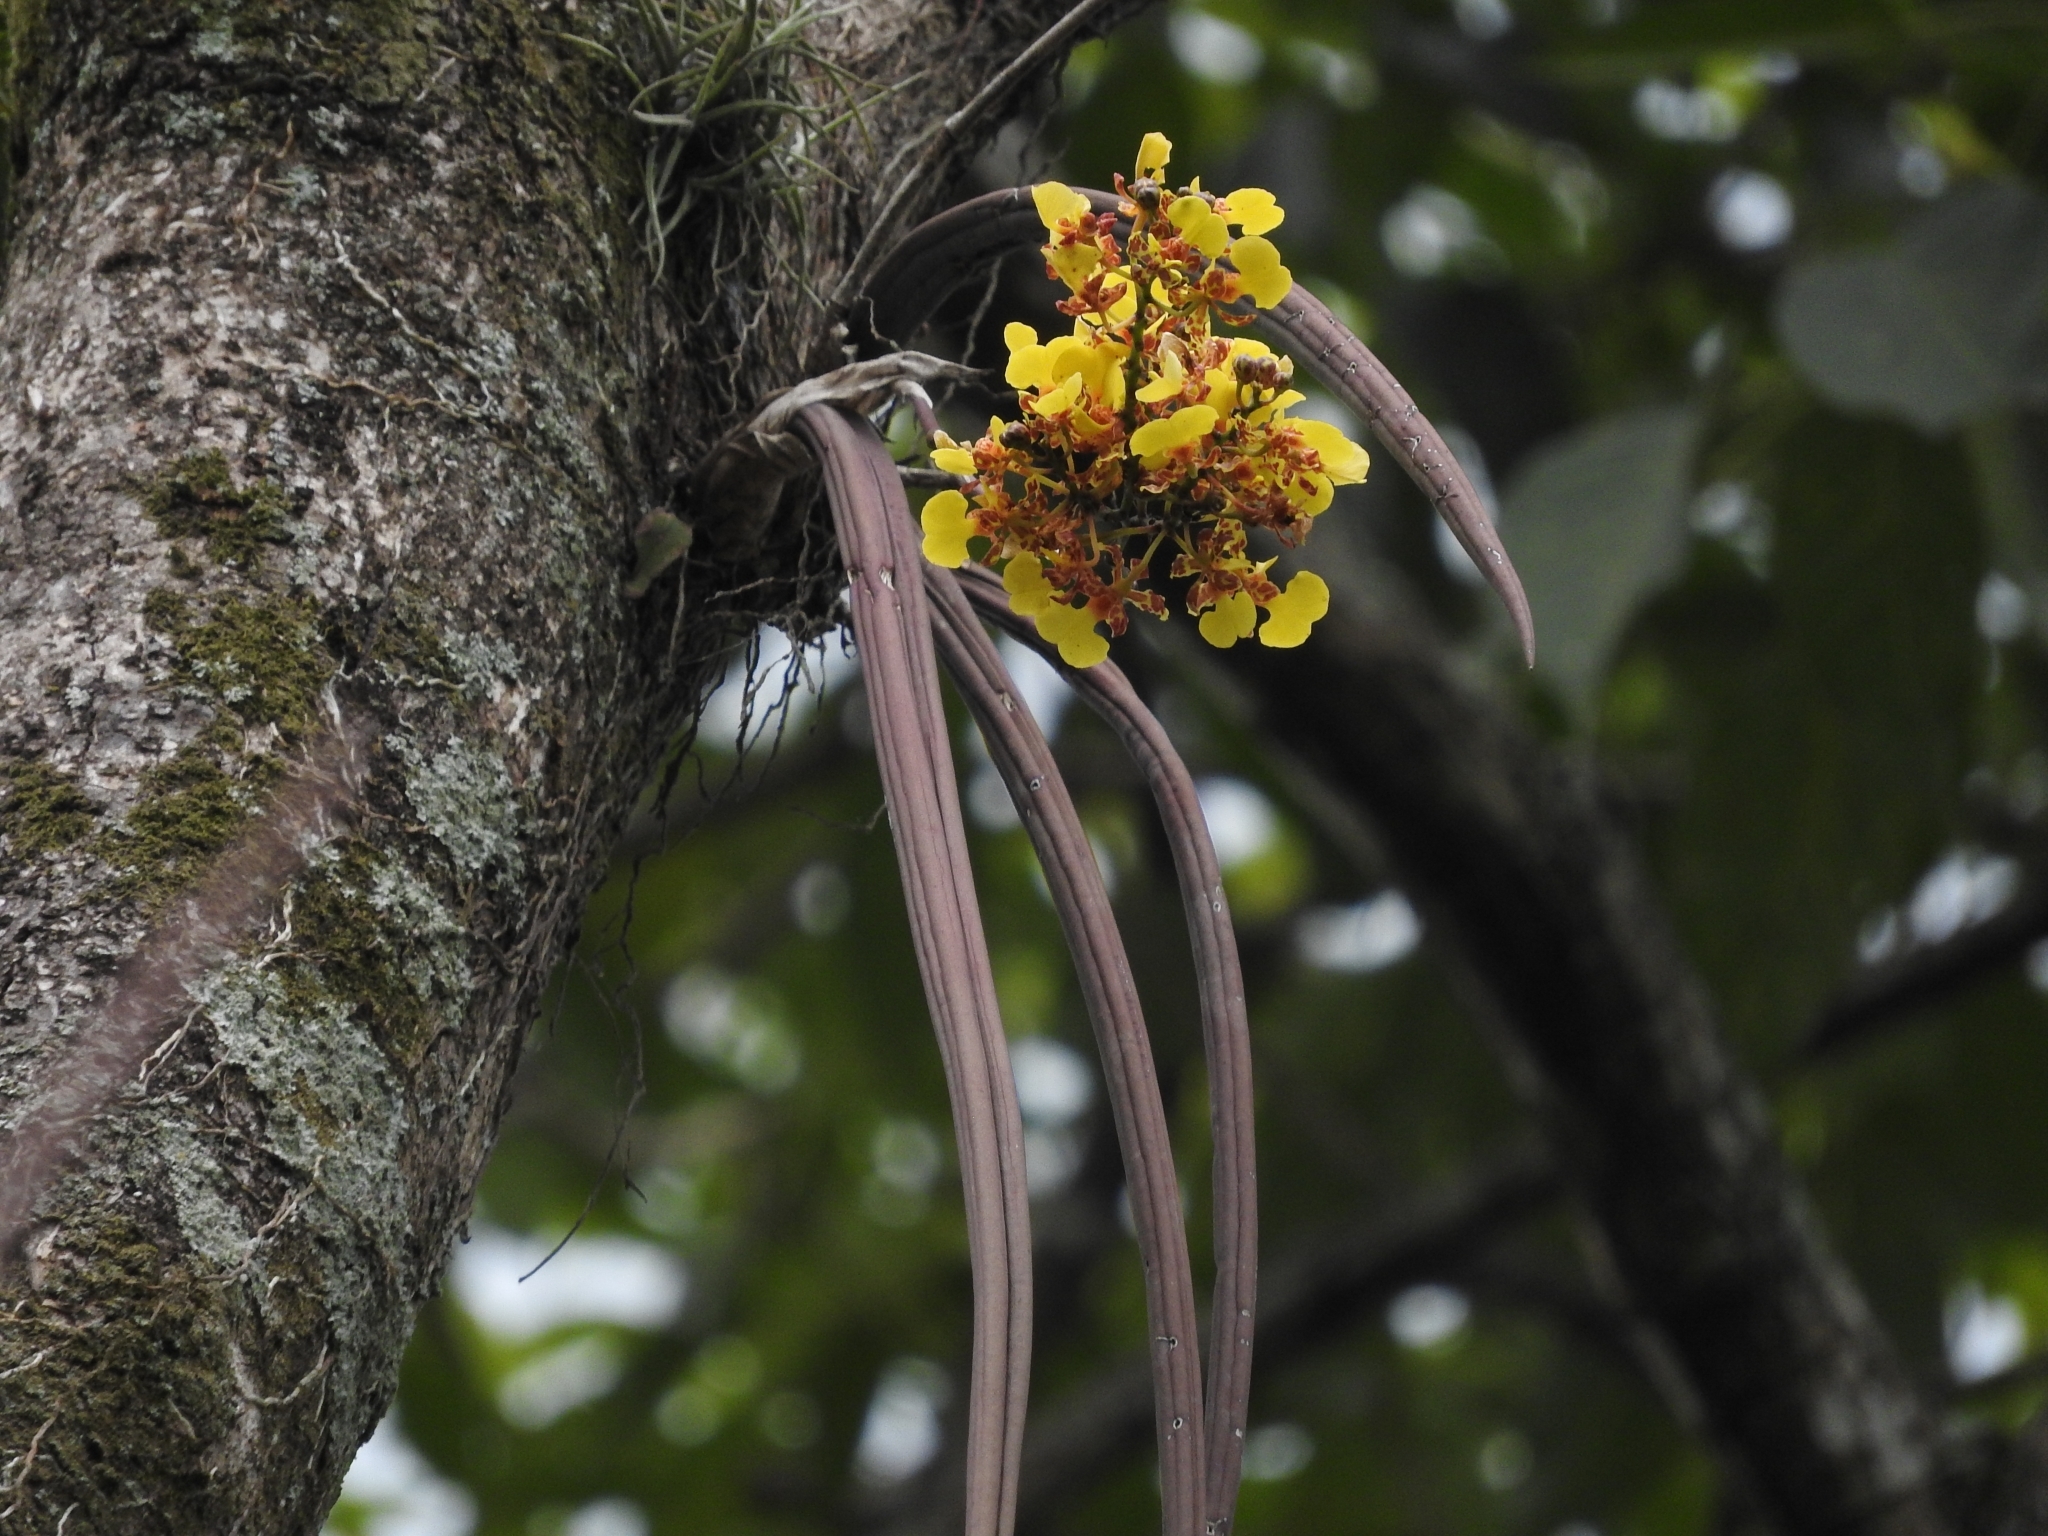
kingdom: Plantae
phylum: Tracheophyta
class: Liliopsida
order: Asparagales
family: Orchidaceae
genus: Trichocentrum
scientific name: Trichocentrum ascendens
